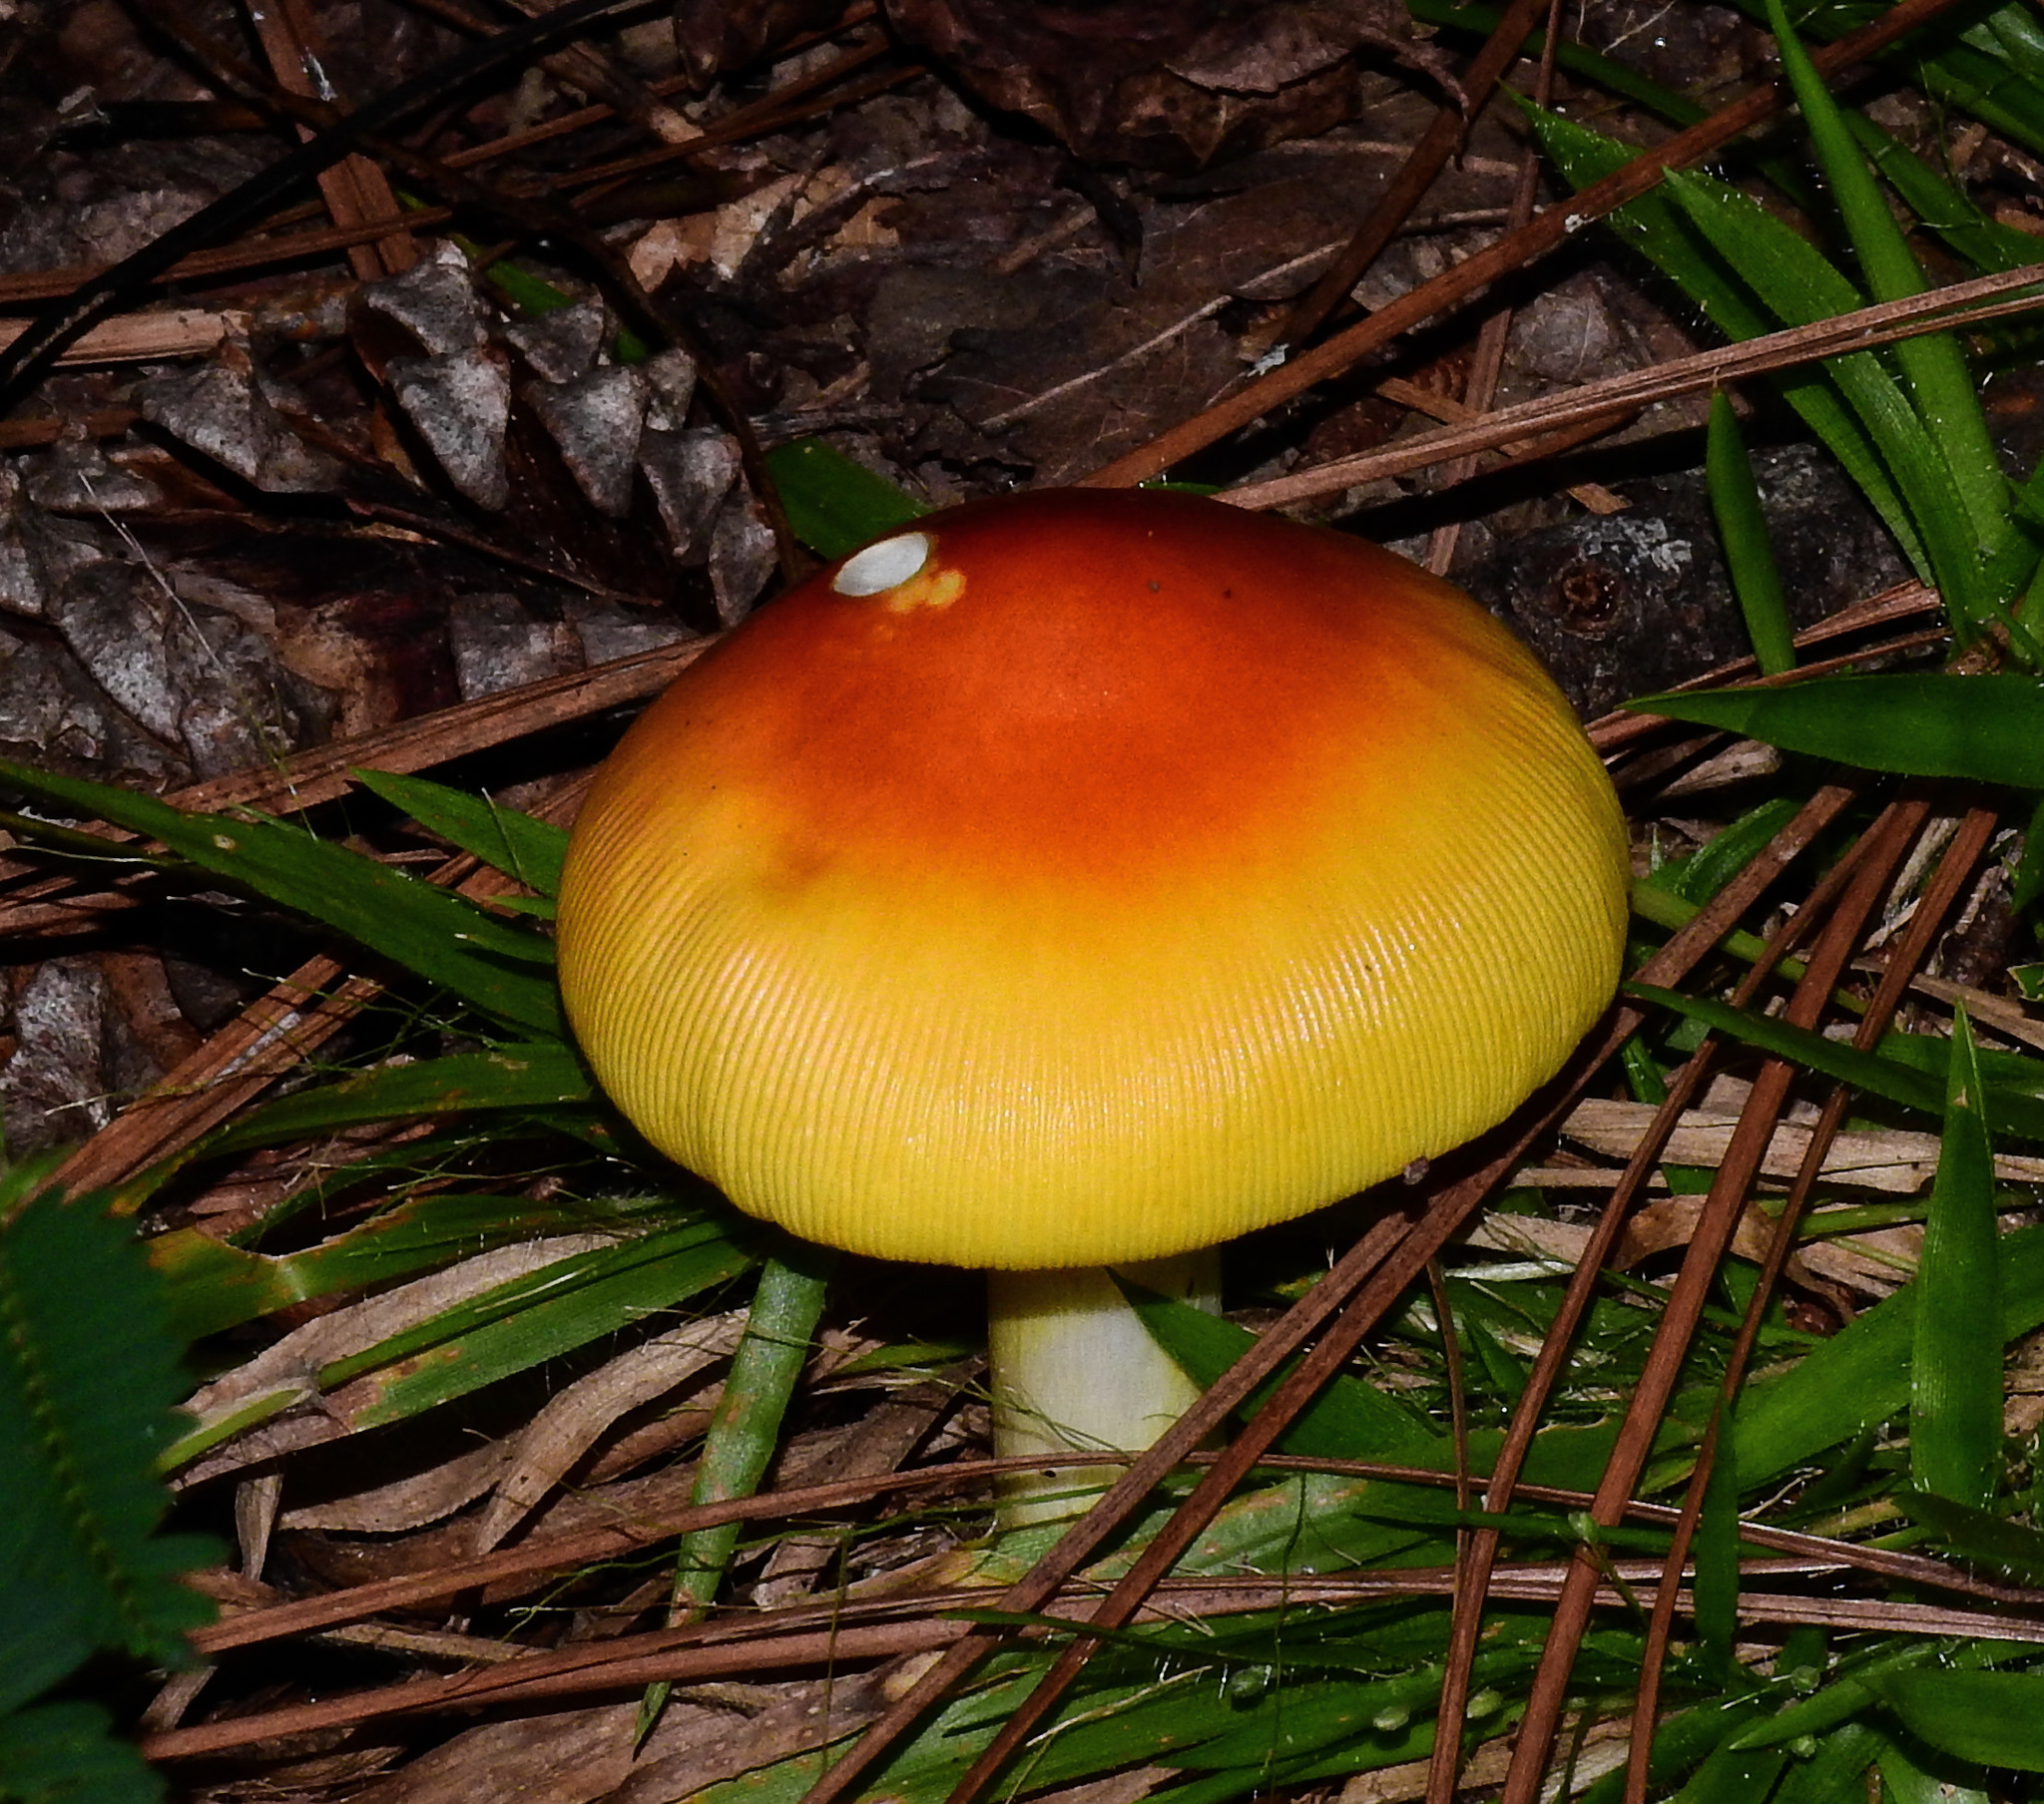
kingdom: Fungi
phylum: Basidiomycota
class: Agaricomycetes
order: Agaricales
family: Amanitaceae
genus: Amanita
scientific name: Amanita jacksonii
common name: Jackson's slender caesar
